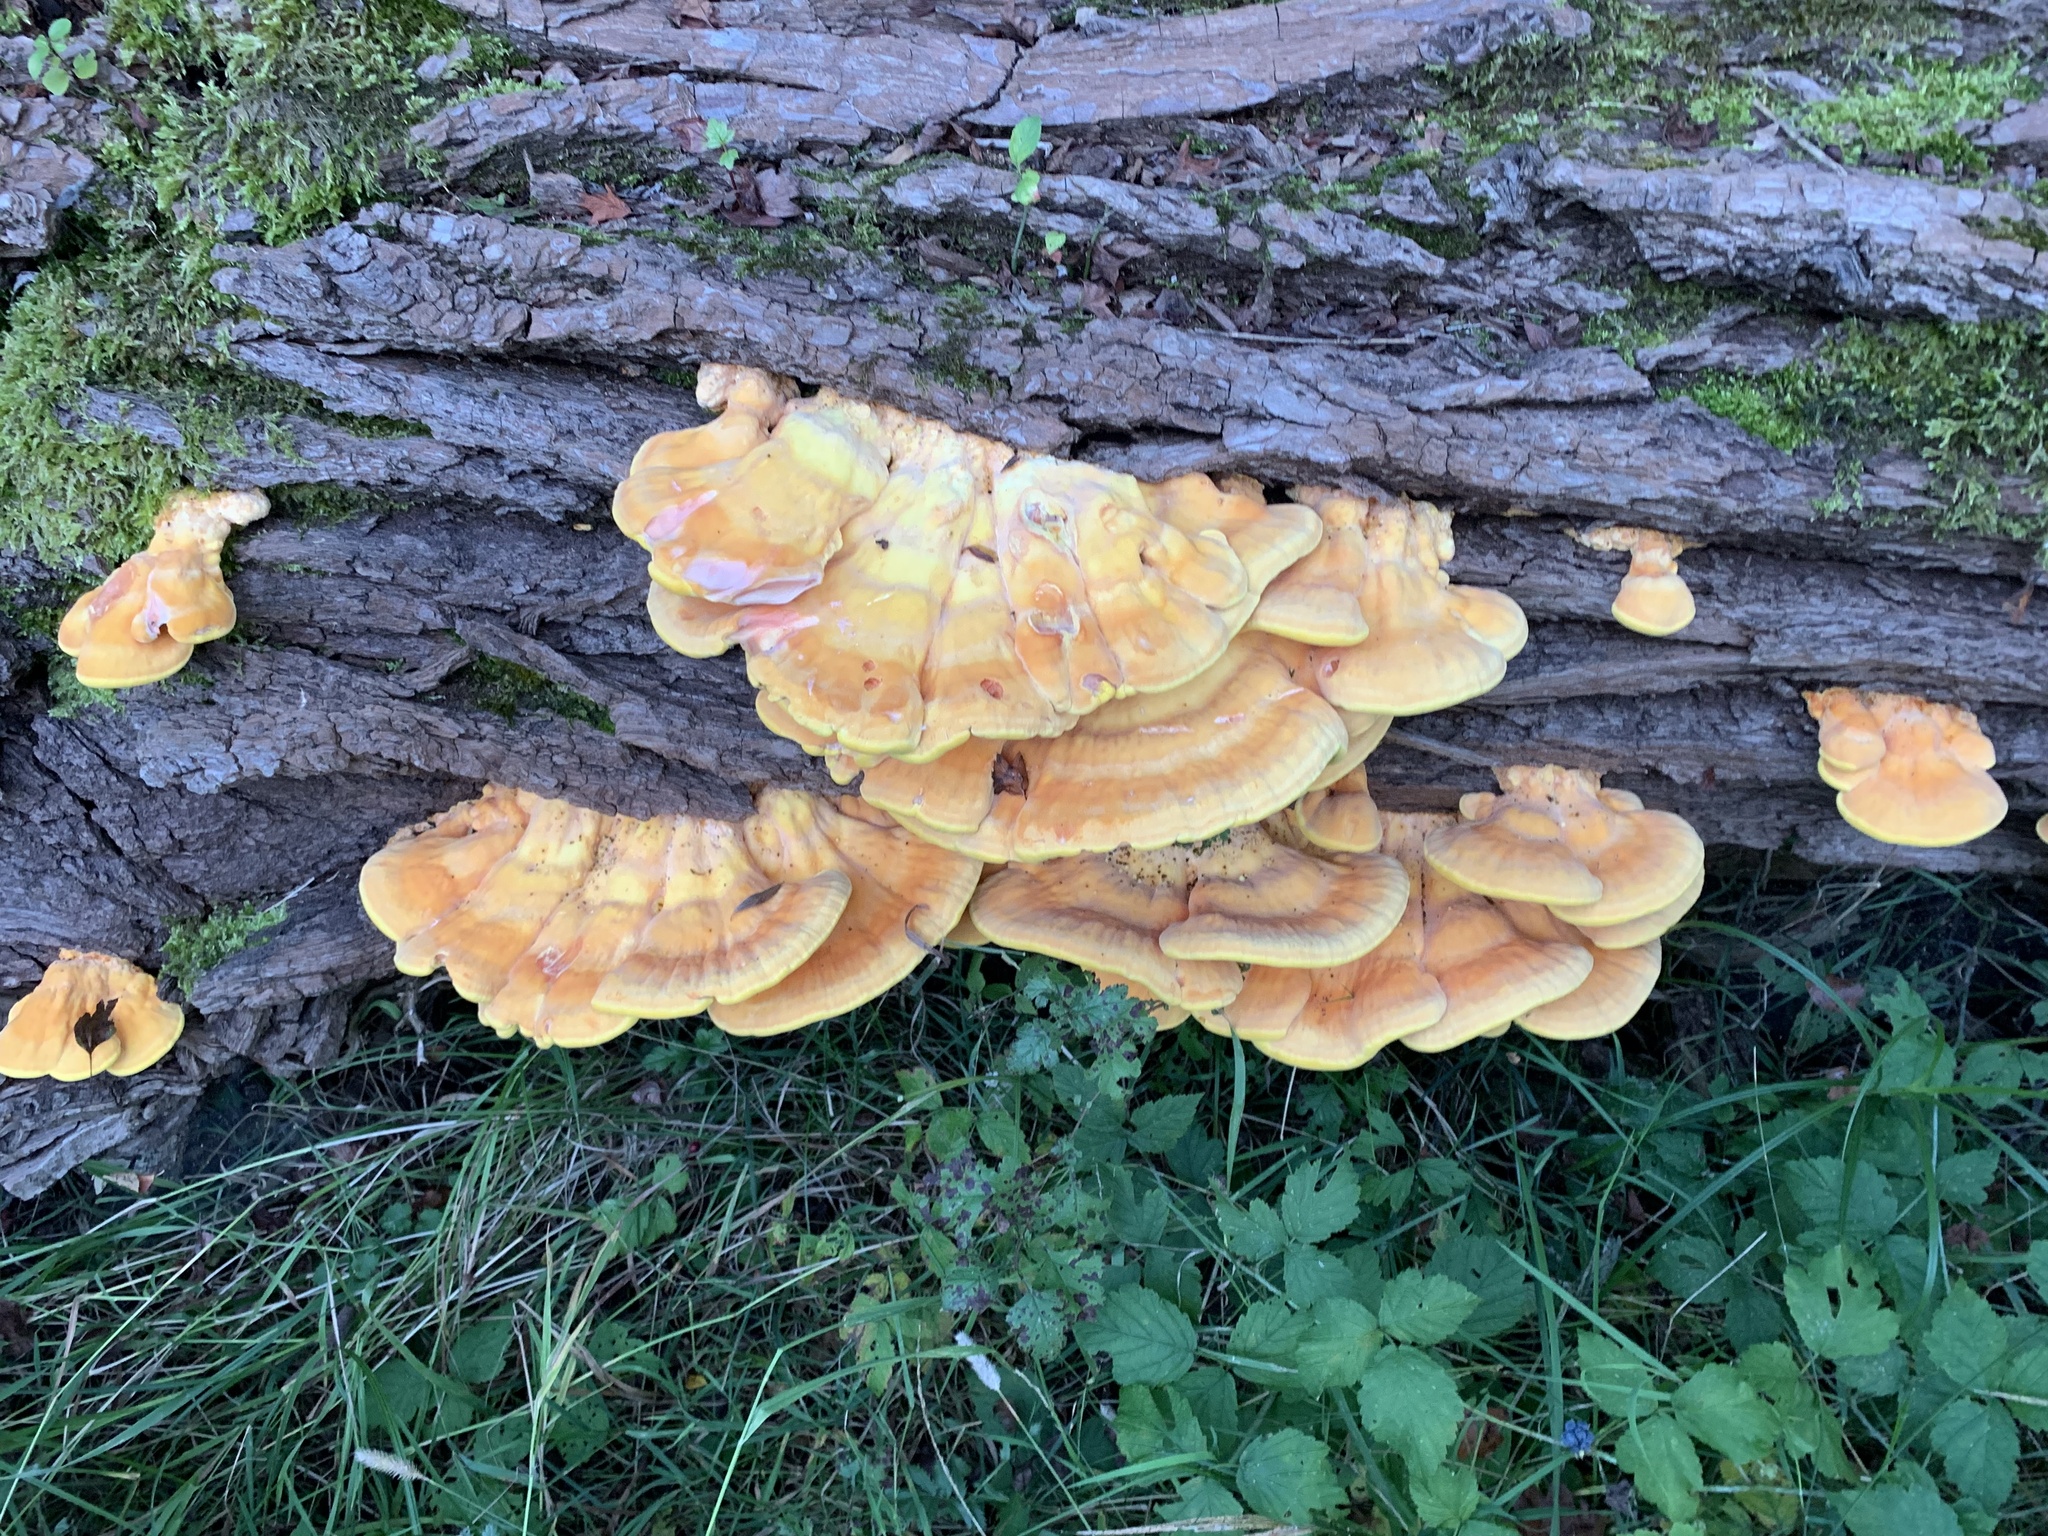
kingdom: Fungi
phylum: Basidiomycota
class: Agaricomycetes
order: Polyporales
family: Laetiporaceae
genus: Laetiporus
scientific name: Laetiporus sulphureus
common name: Chicken of the woods
